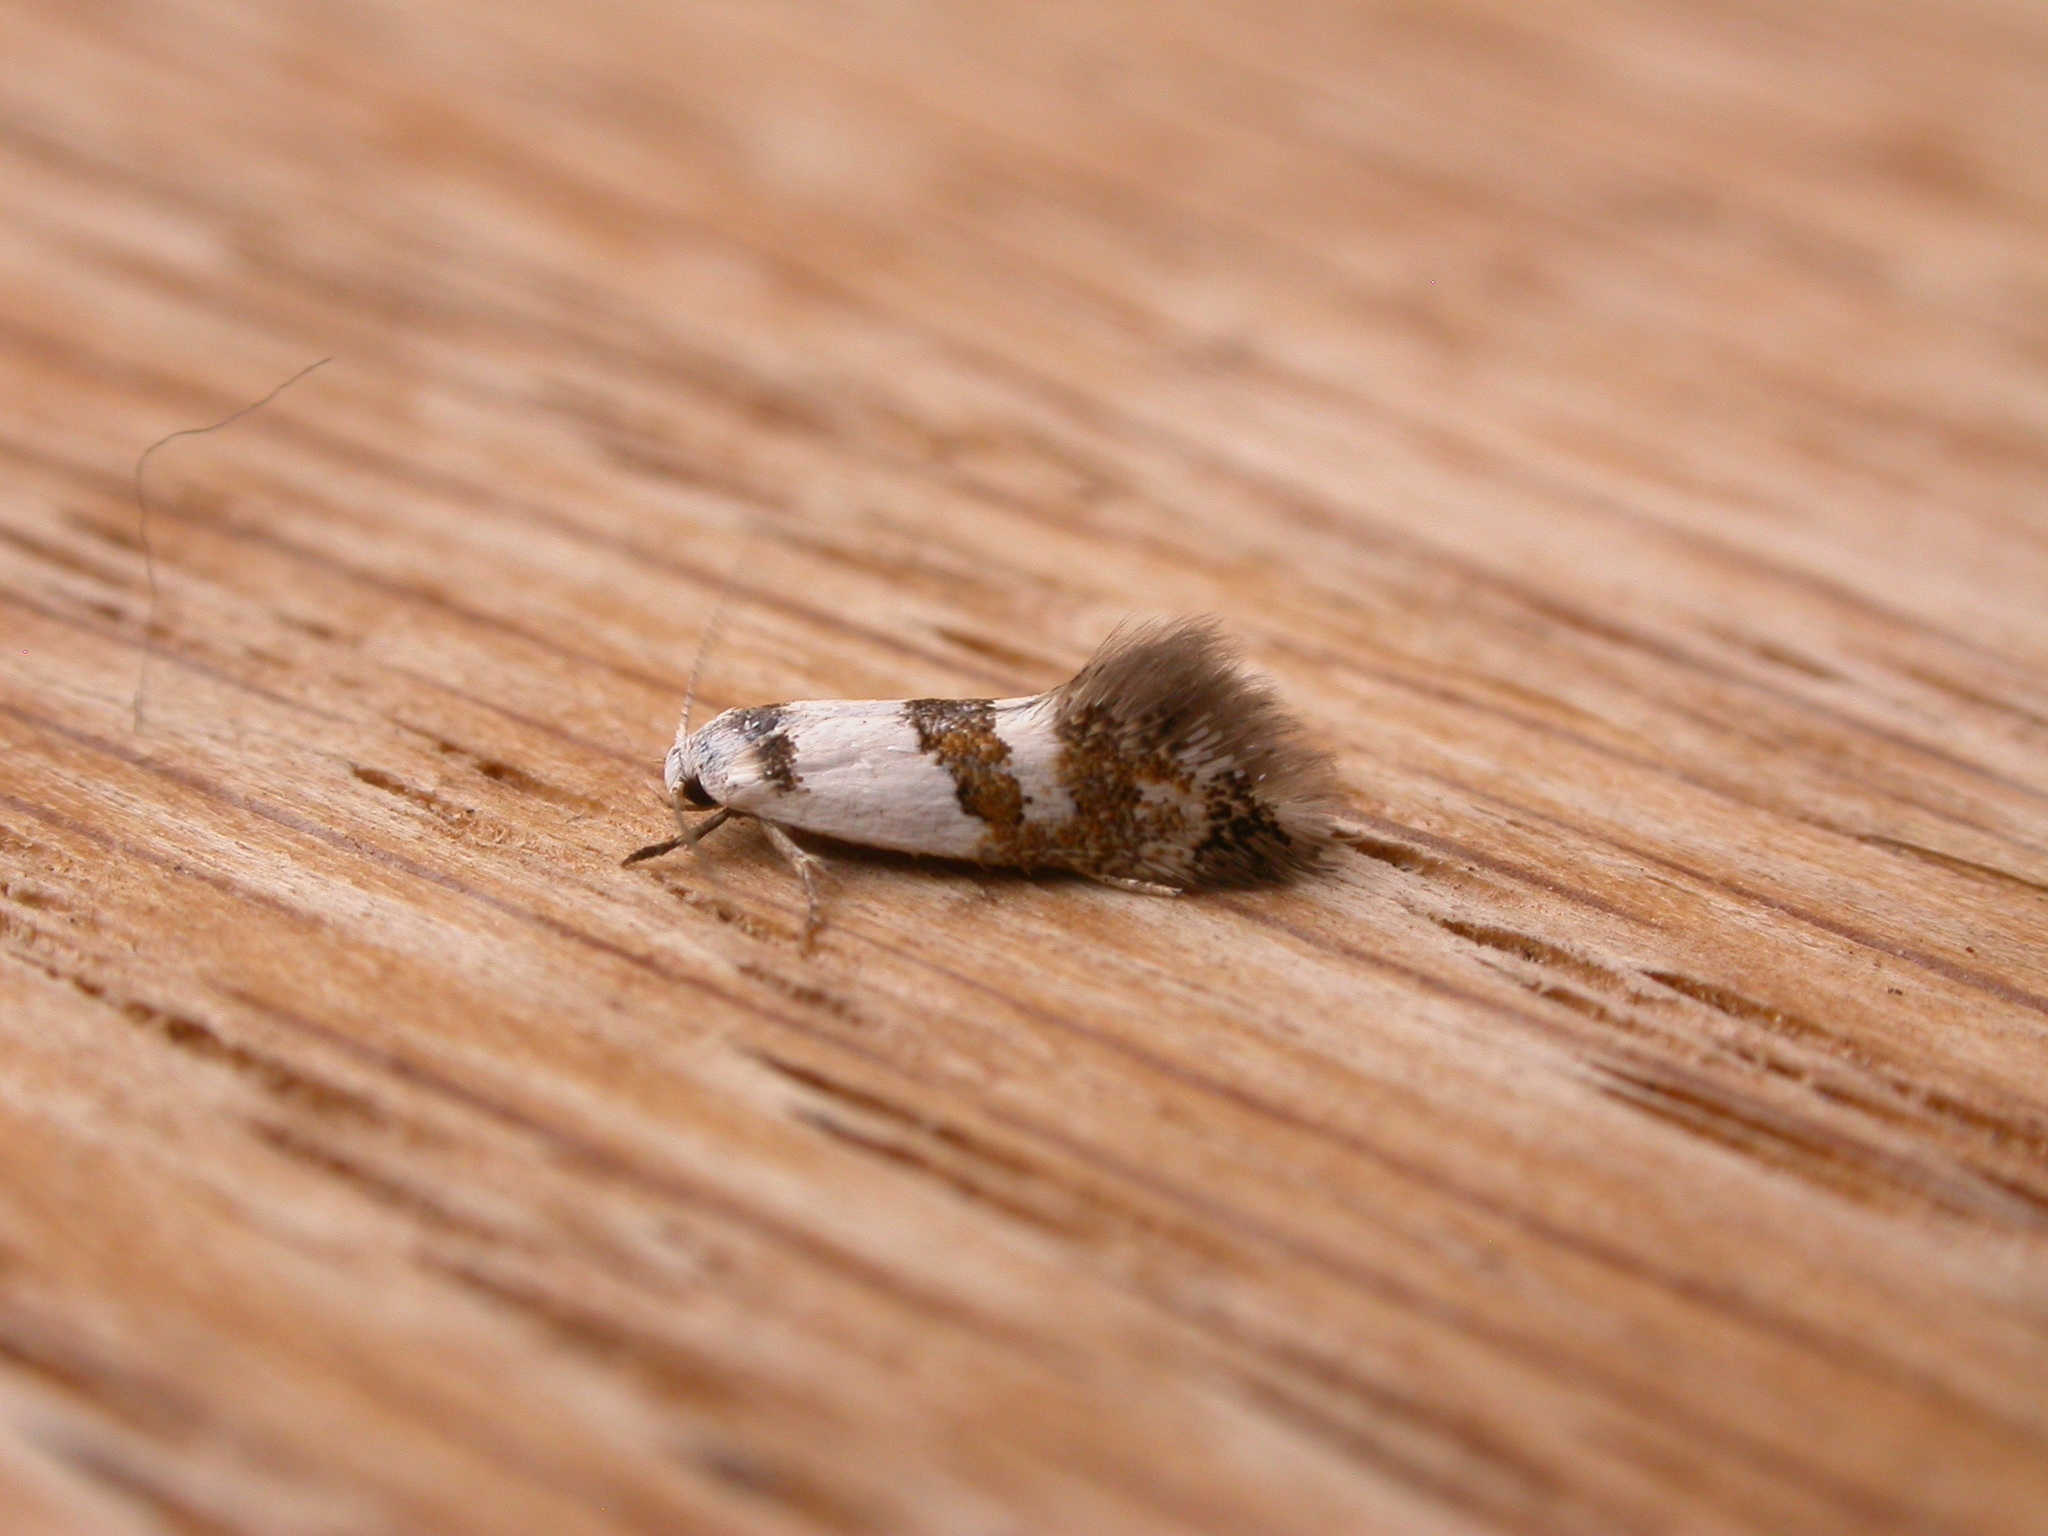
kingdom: Animalia
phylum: Arthropoda
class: Insecta
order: Lepidoptera
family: Oecophoridae
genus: Notodryas
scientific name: Notodryas vallata
